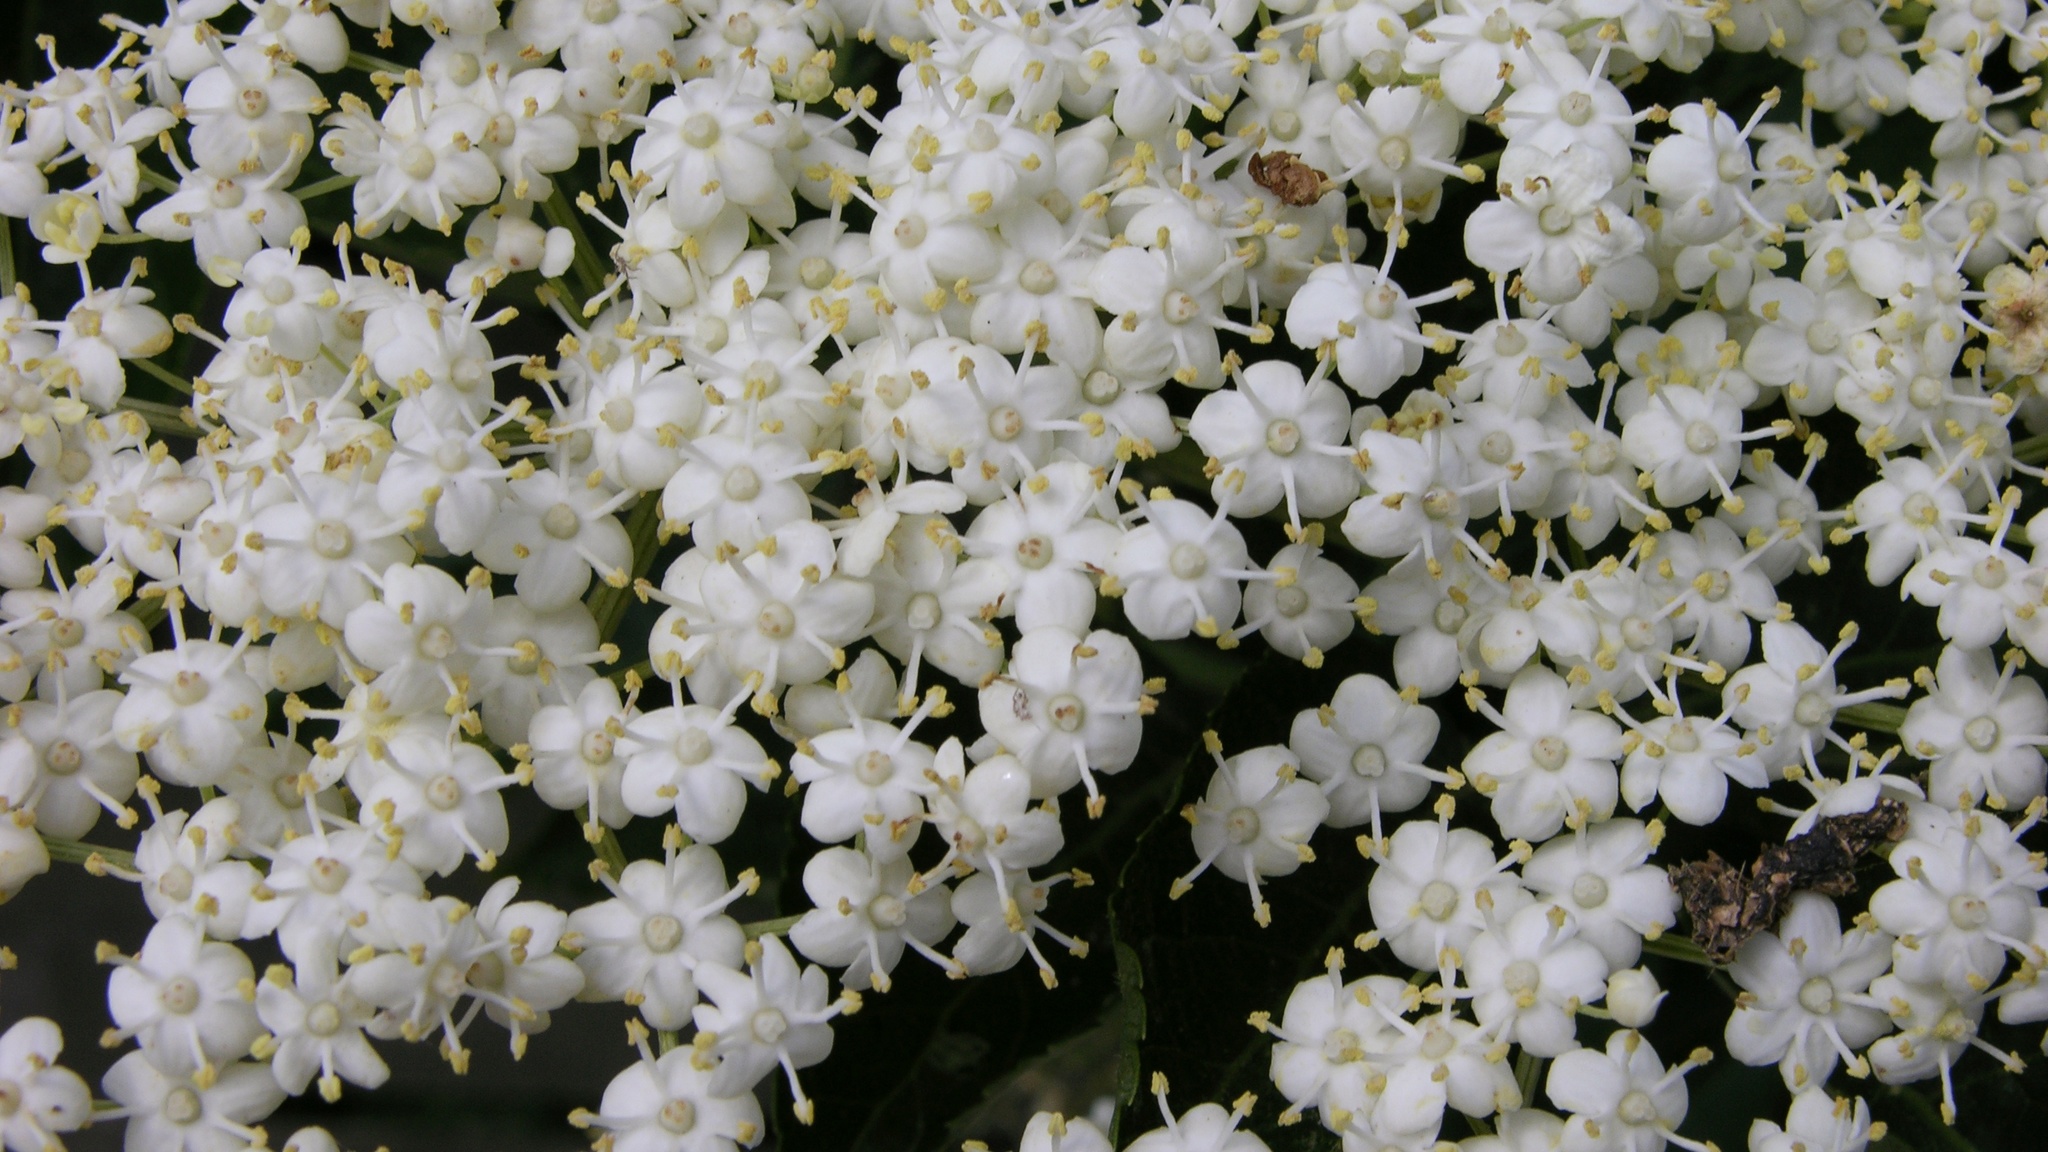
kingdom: Plantae
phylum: Tracheophyta
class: Magnoliopsida
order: Dipsacales
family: Viburnaceae
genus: Sambucus
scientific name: Sambucus nigra
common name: Elder
